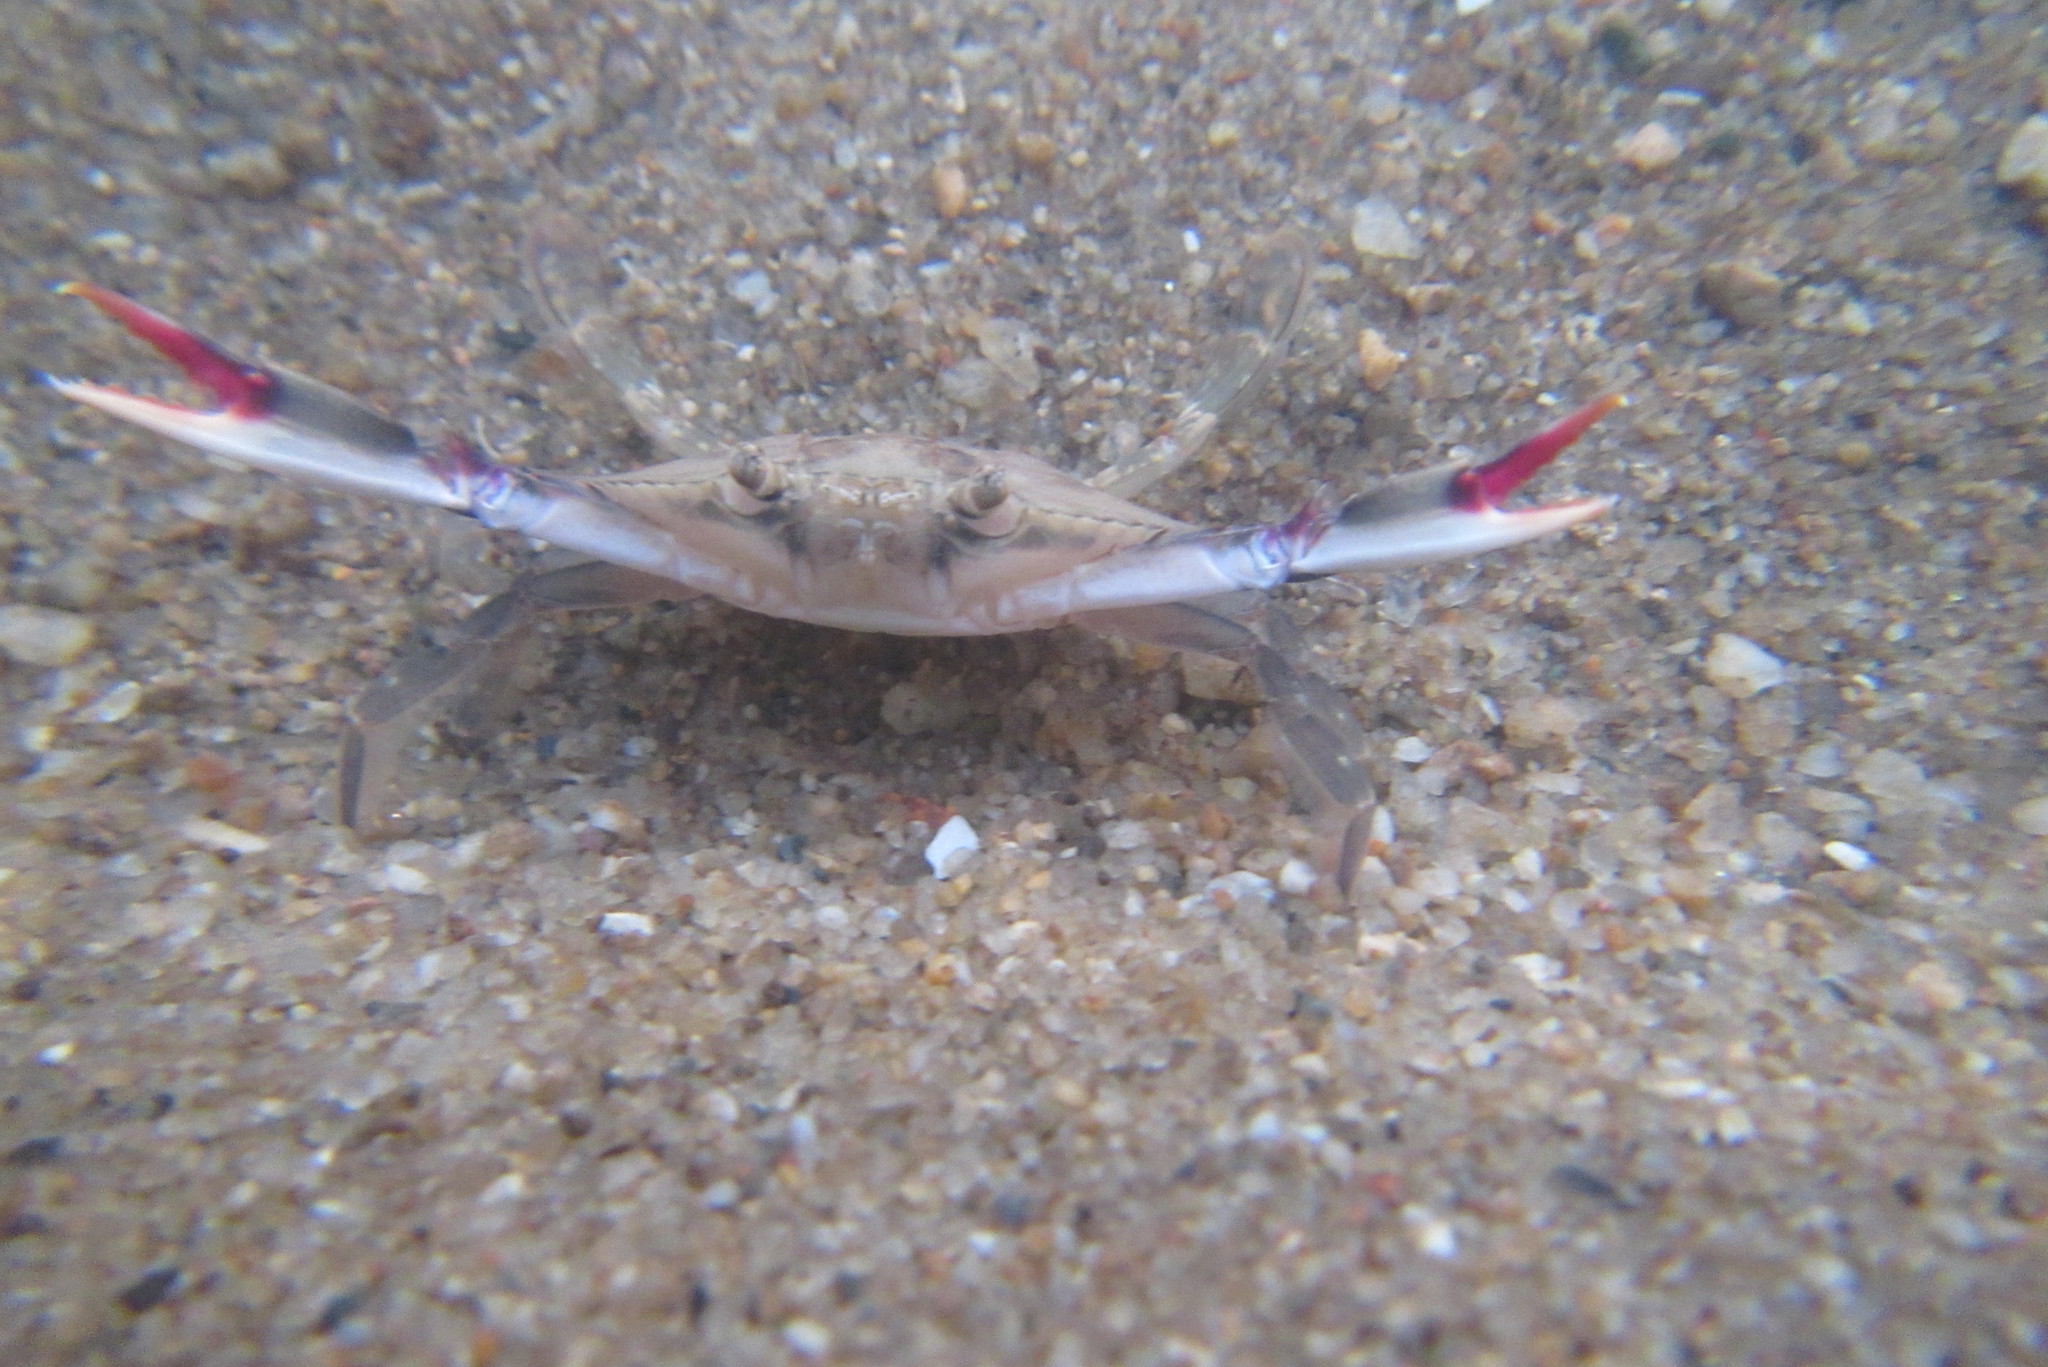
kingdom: Animalia
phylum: Arthropoda
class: Malacostraca
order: Decapoda
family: Portunidae
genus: Portunus
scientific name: Portunus armatus
